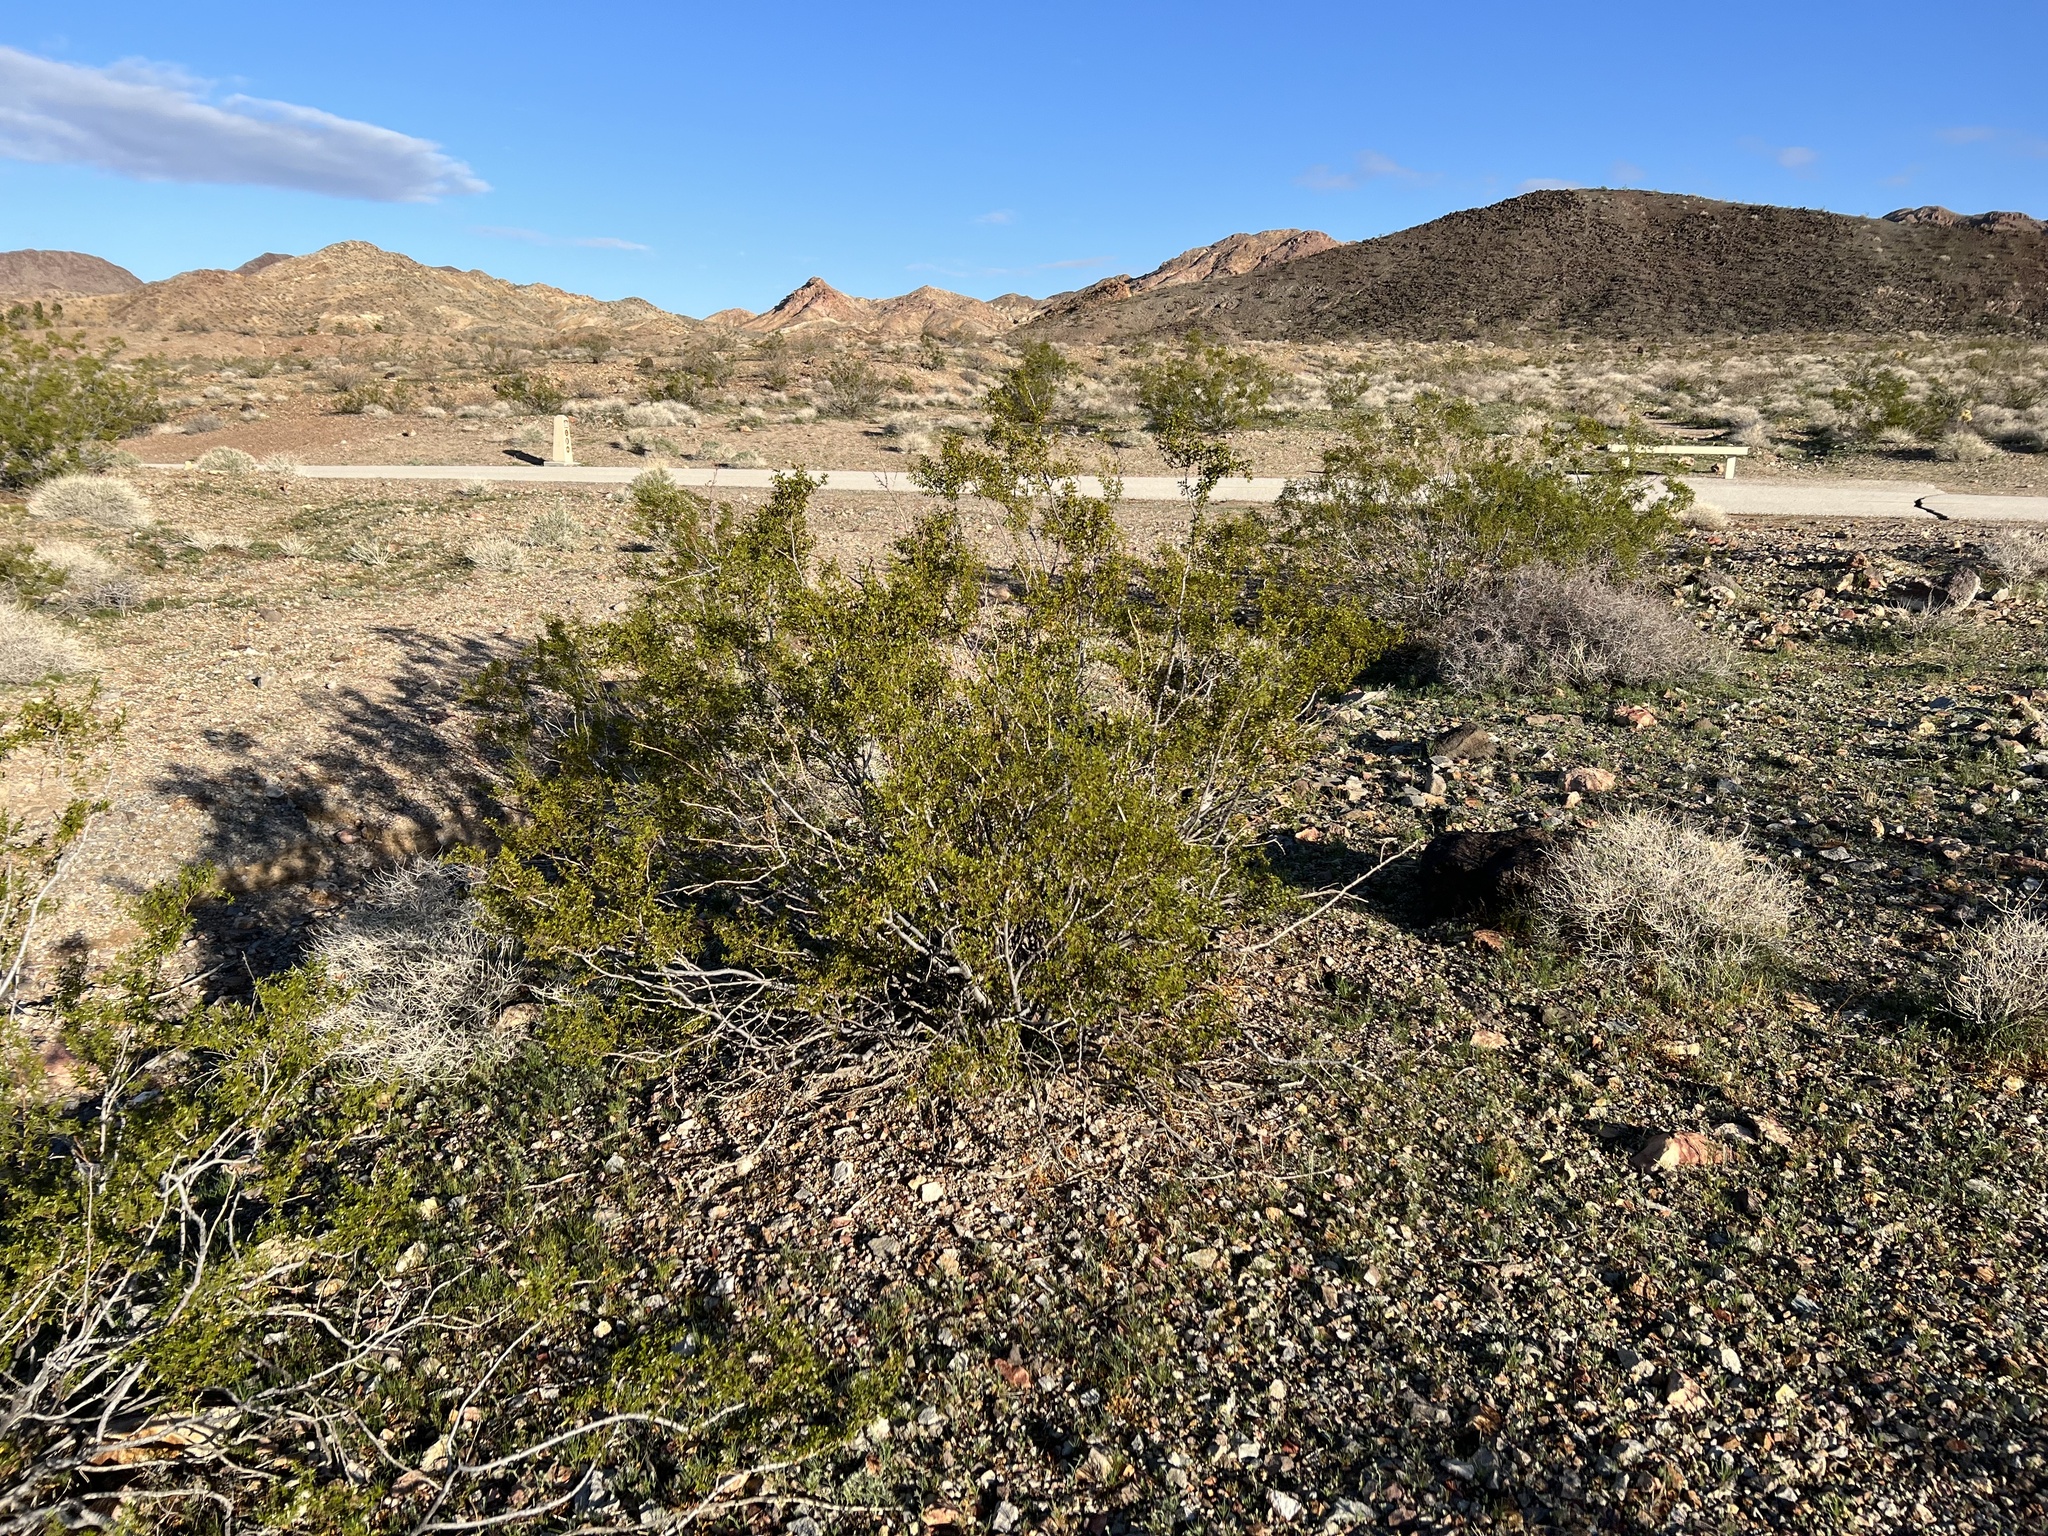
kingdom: Plantae
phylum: Tracheophyta
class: Magnoliopsida
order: Zygophyllales
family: Zygophyllaceae
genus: Larrea
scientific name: Larrea tridentata
